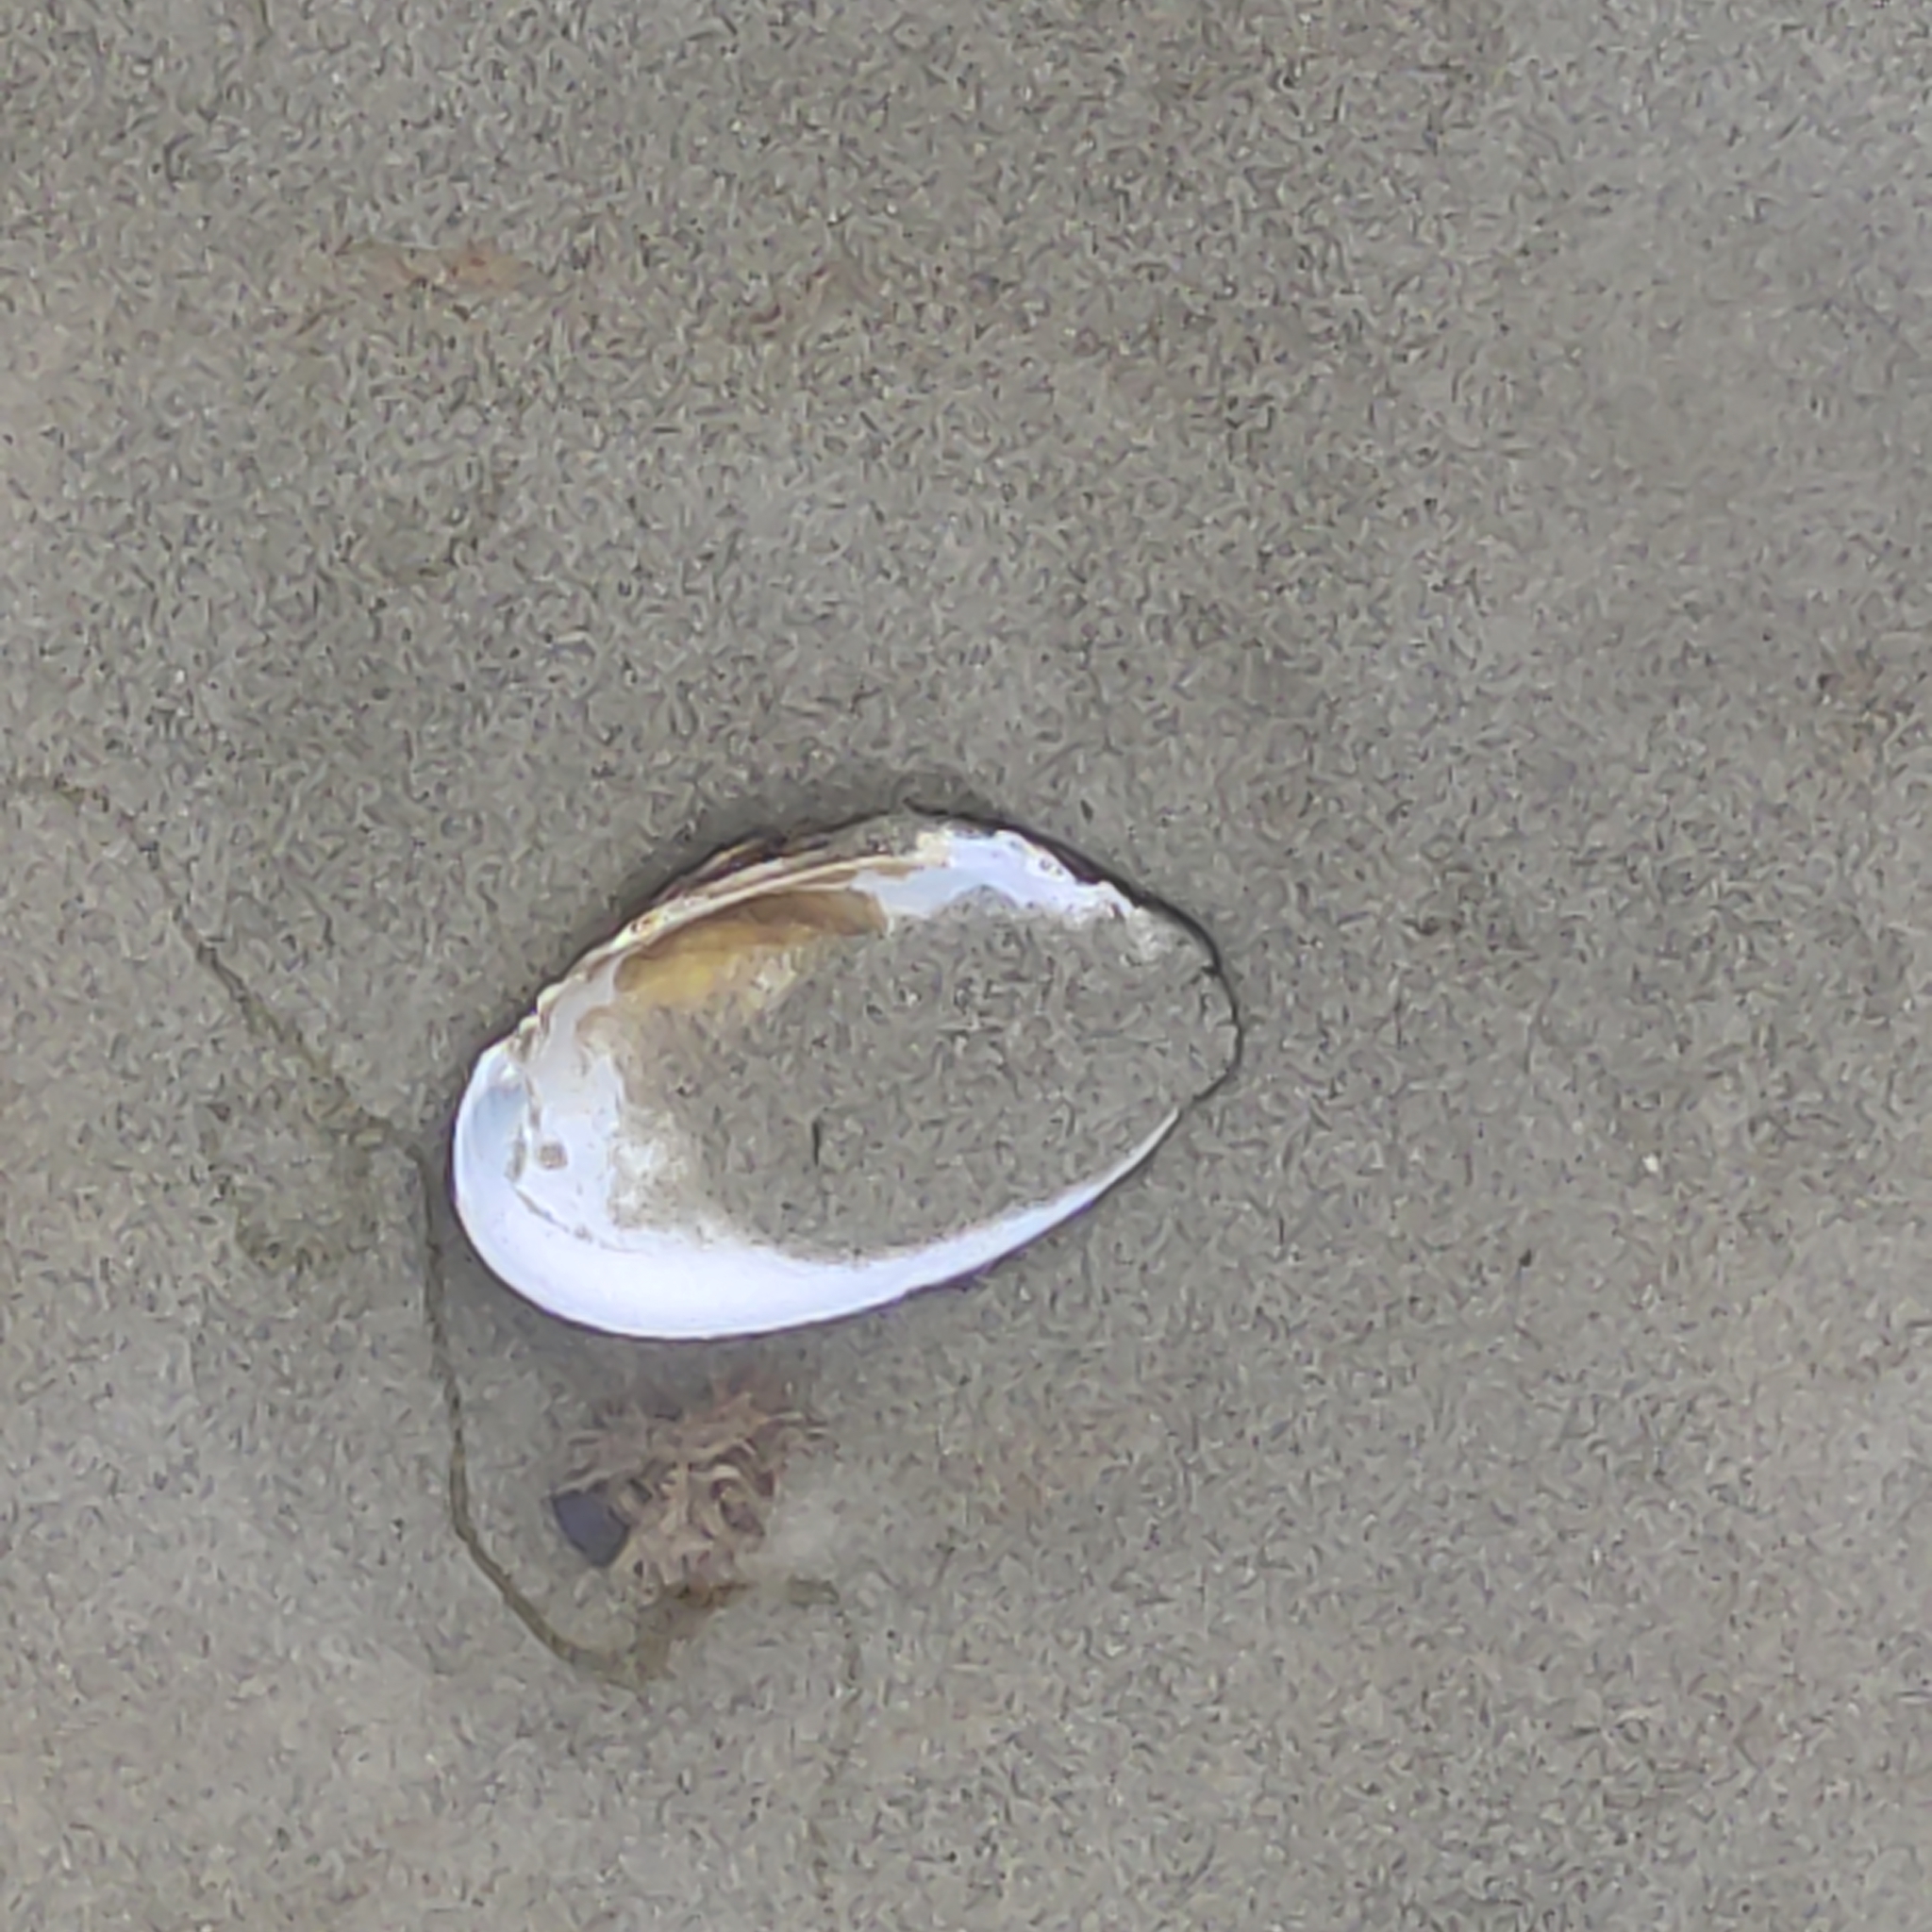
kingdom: Animalia
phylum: Mollusca
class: Bivalvia
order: Unionida
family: Hyriidae
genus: Echyridella
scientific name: Echyridella menziesii
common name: New zealand freshwater mussel
